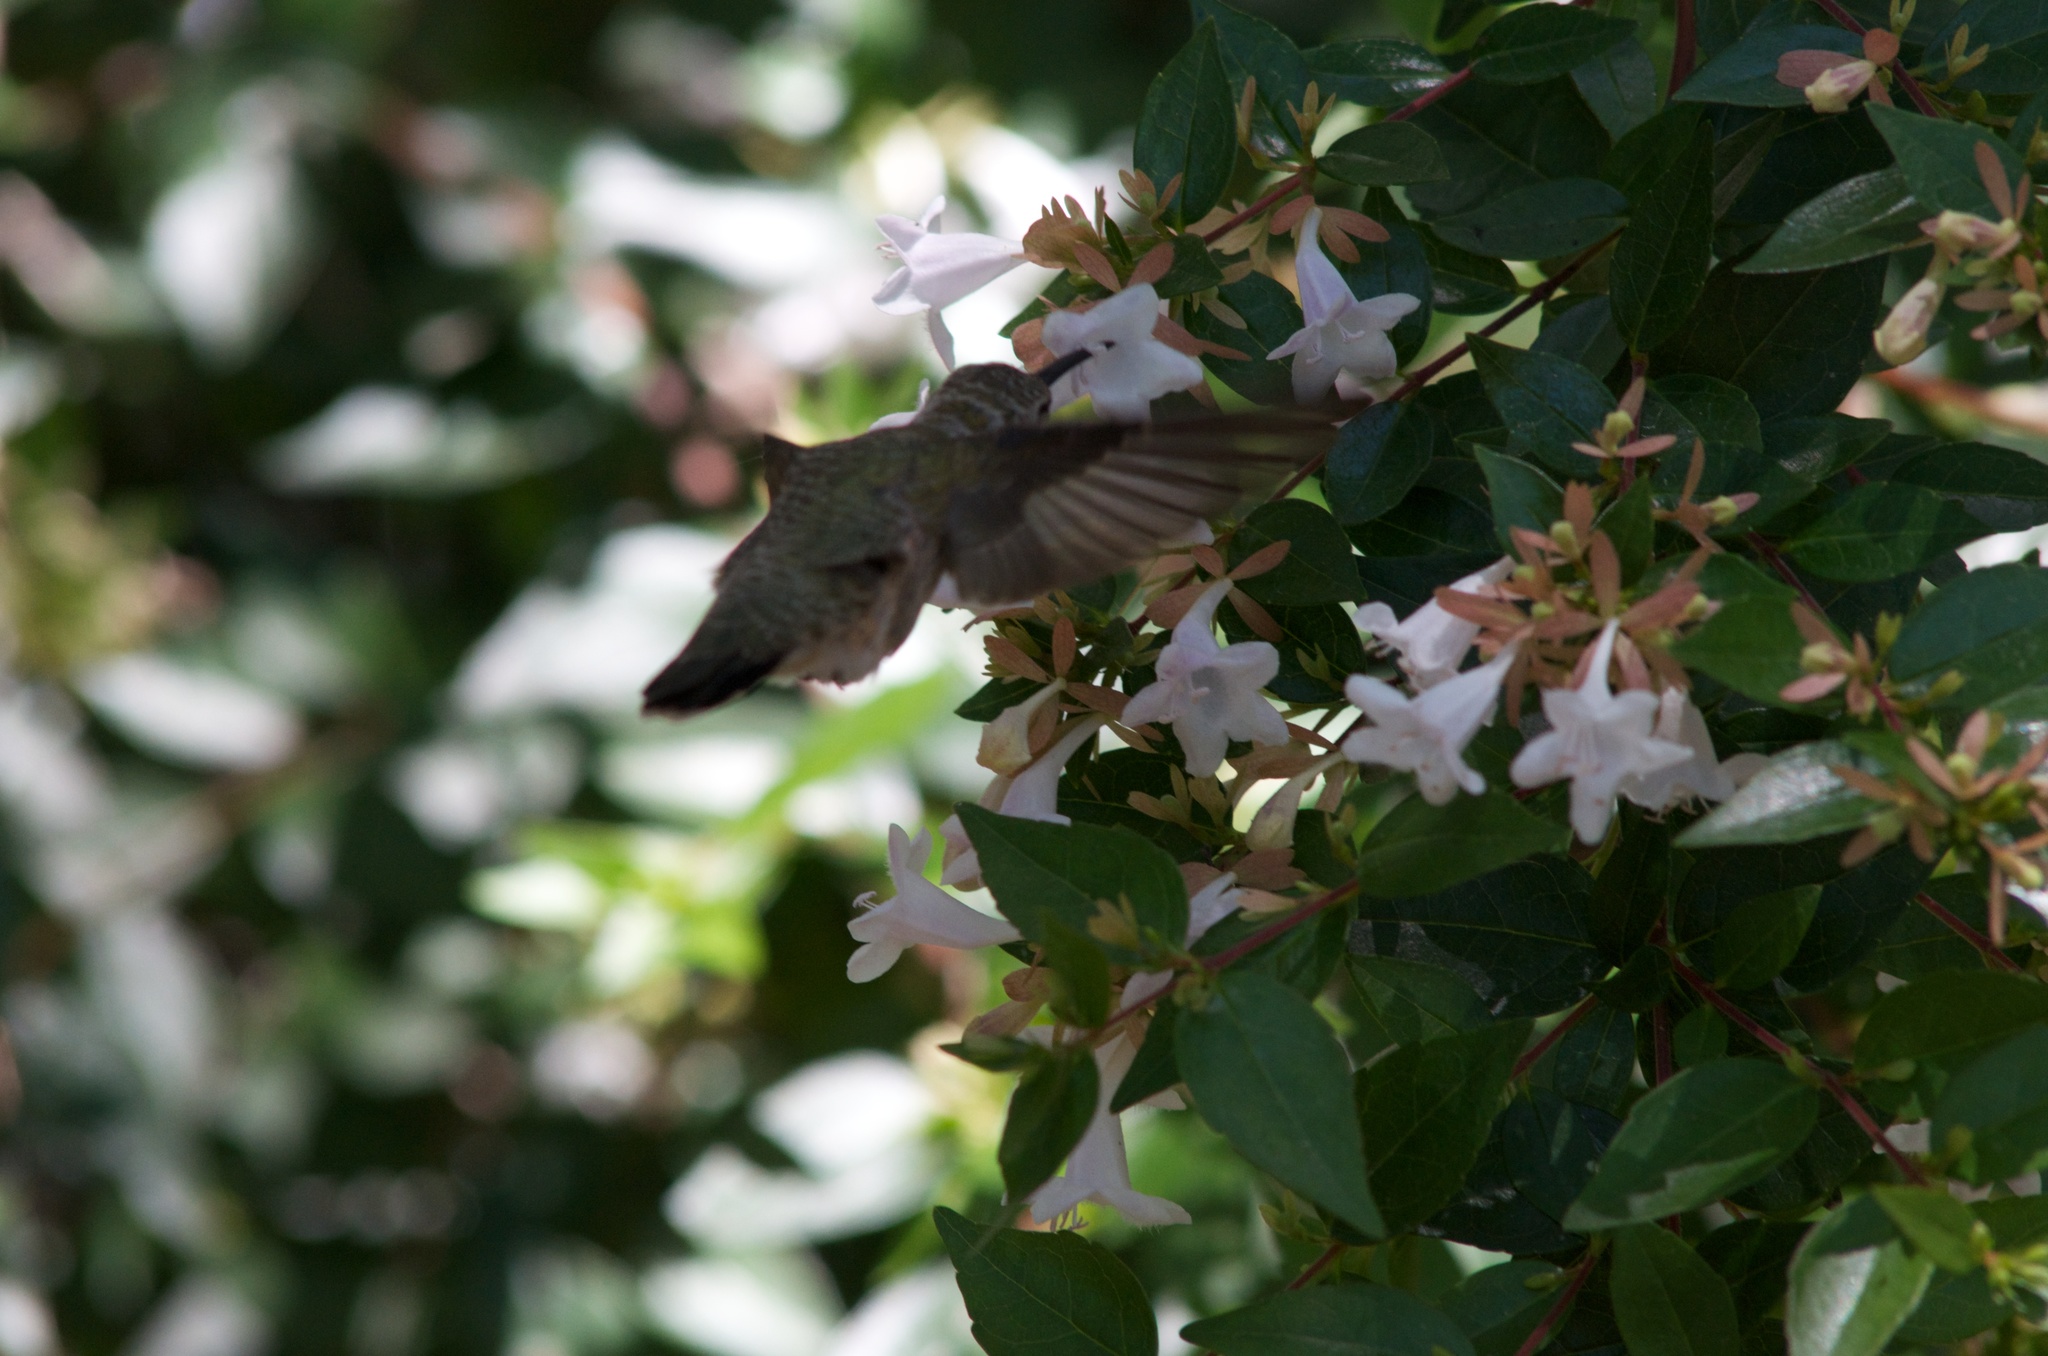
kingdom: Animalia
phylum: Chordata
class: Aves
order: Apodiformes
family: Trochilidae
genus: Archilochus
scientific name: Archilochus alexandri
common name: Black-chinned hummingbird
